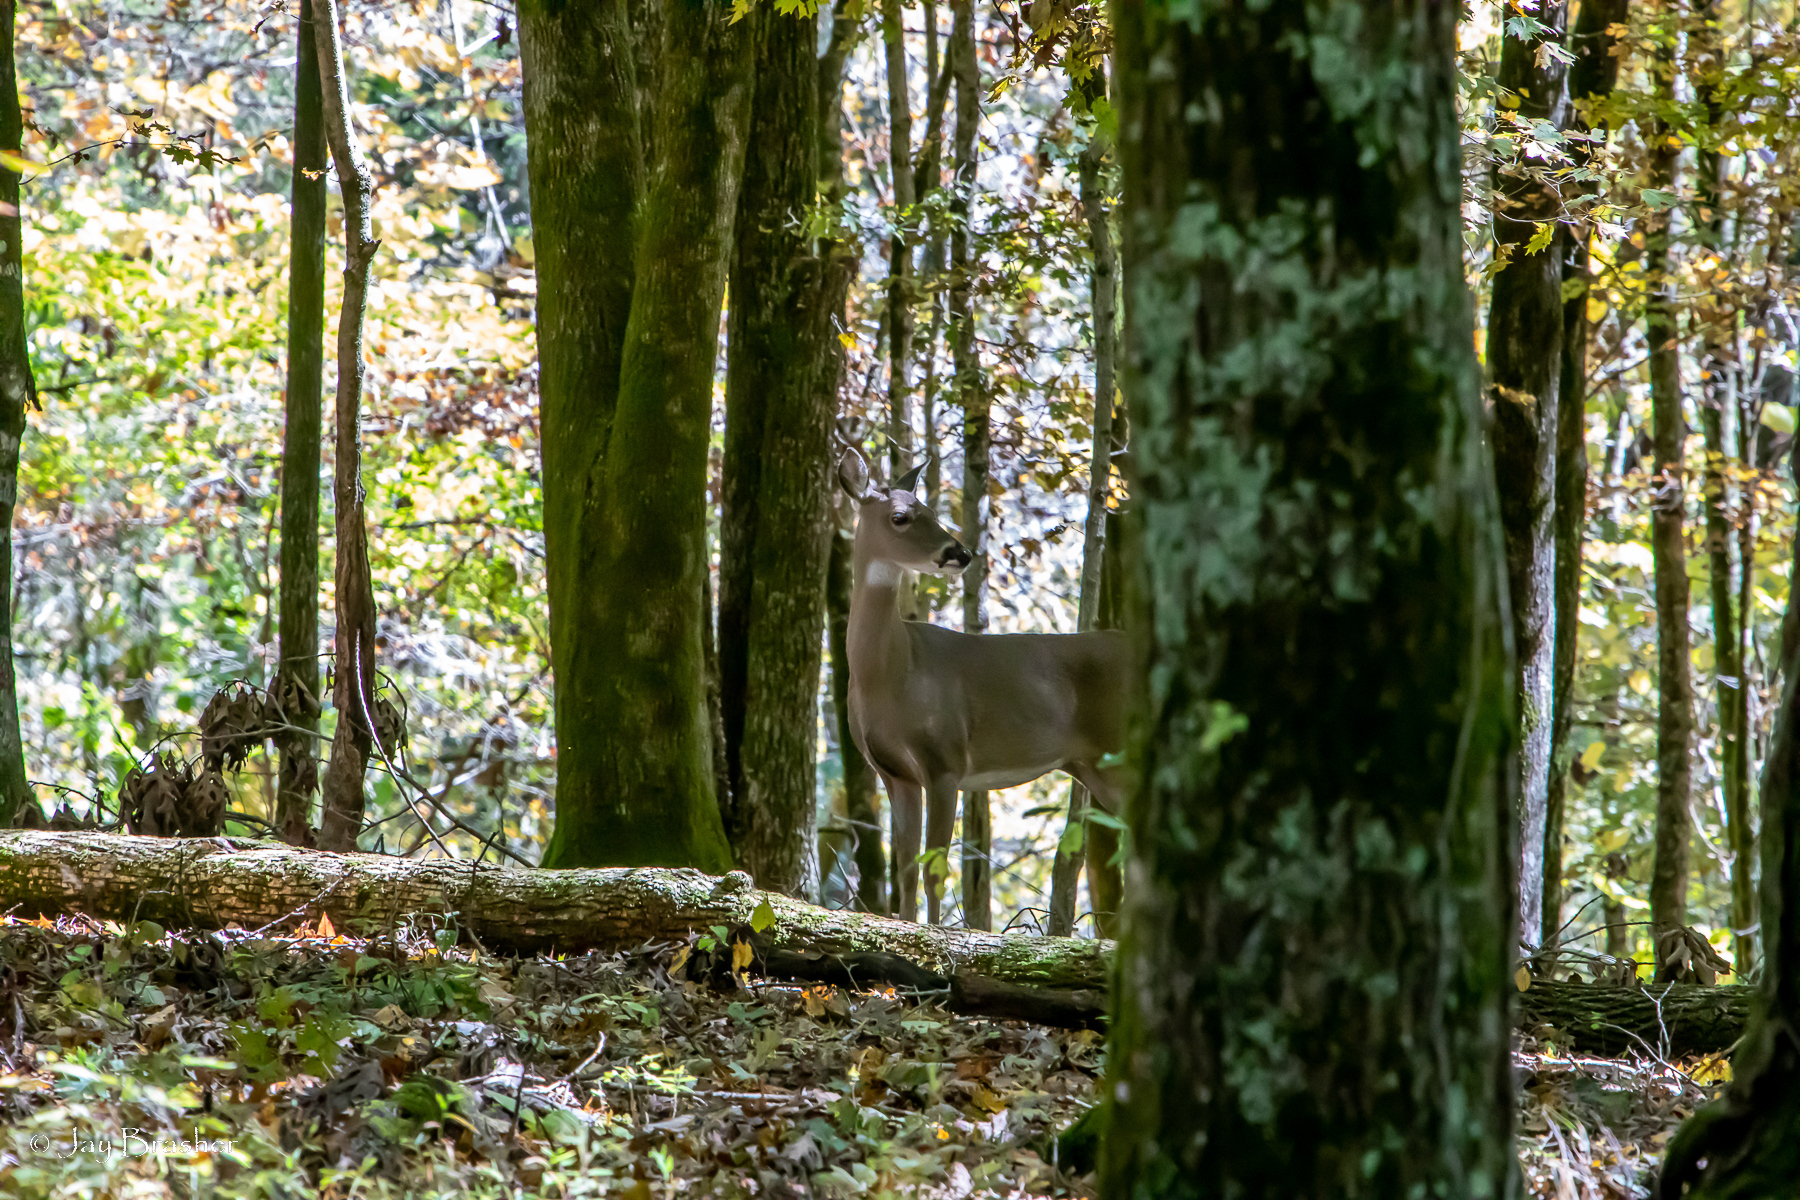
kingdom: Animalia
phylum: Chordata
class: Mammalia
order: Artiodactyla
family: Cervidae
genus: Odocoileus
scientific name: Odocoileus virginianus
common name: White-tailed deer
